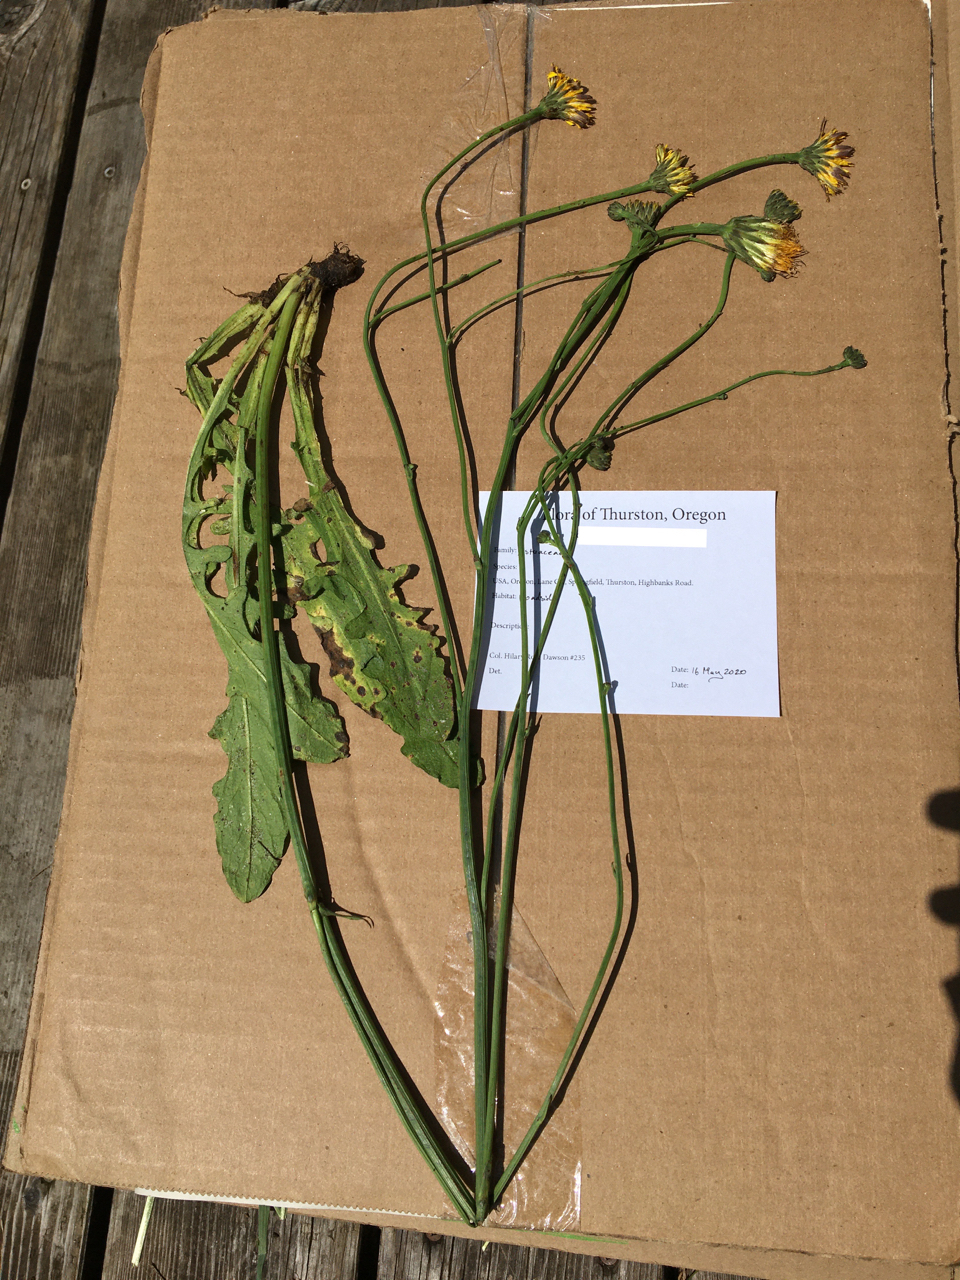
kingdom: Plantae
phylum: Tracheophyta
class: Magnoliopsida
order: Asterales
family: Asteraceae
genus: Hypochaeris
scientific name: Hypochaeris radicata
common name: Flatweed
